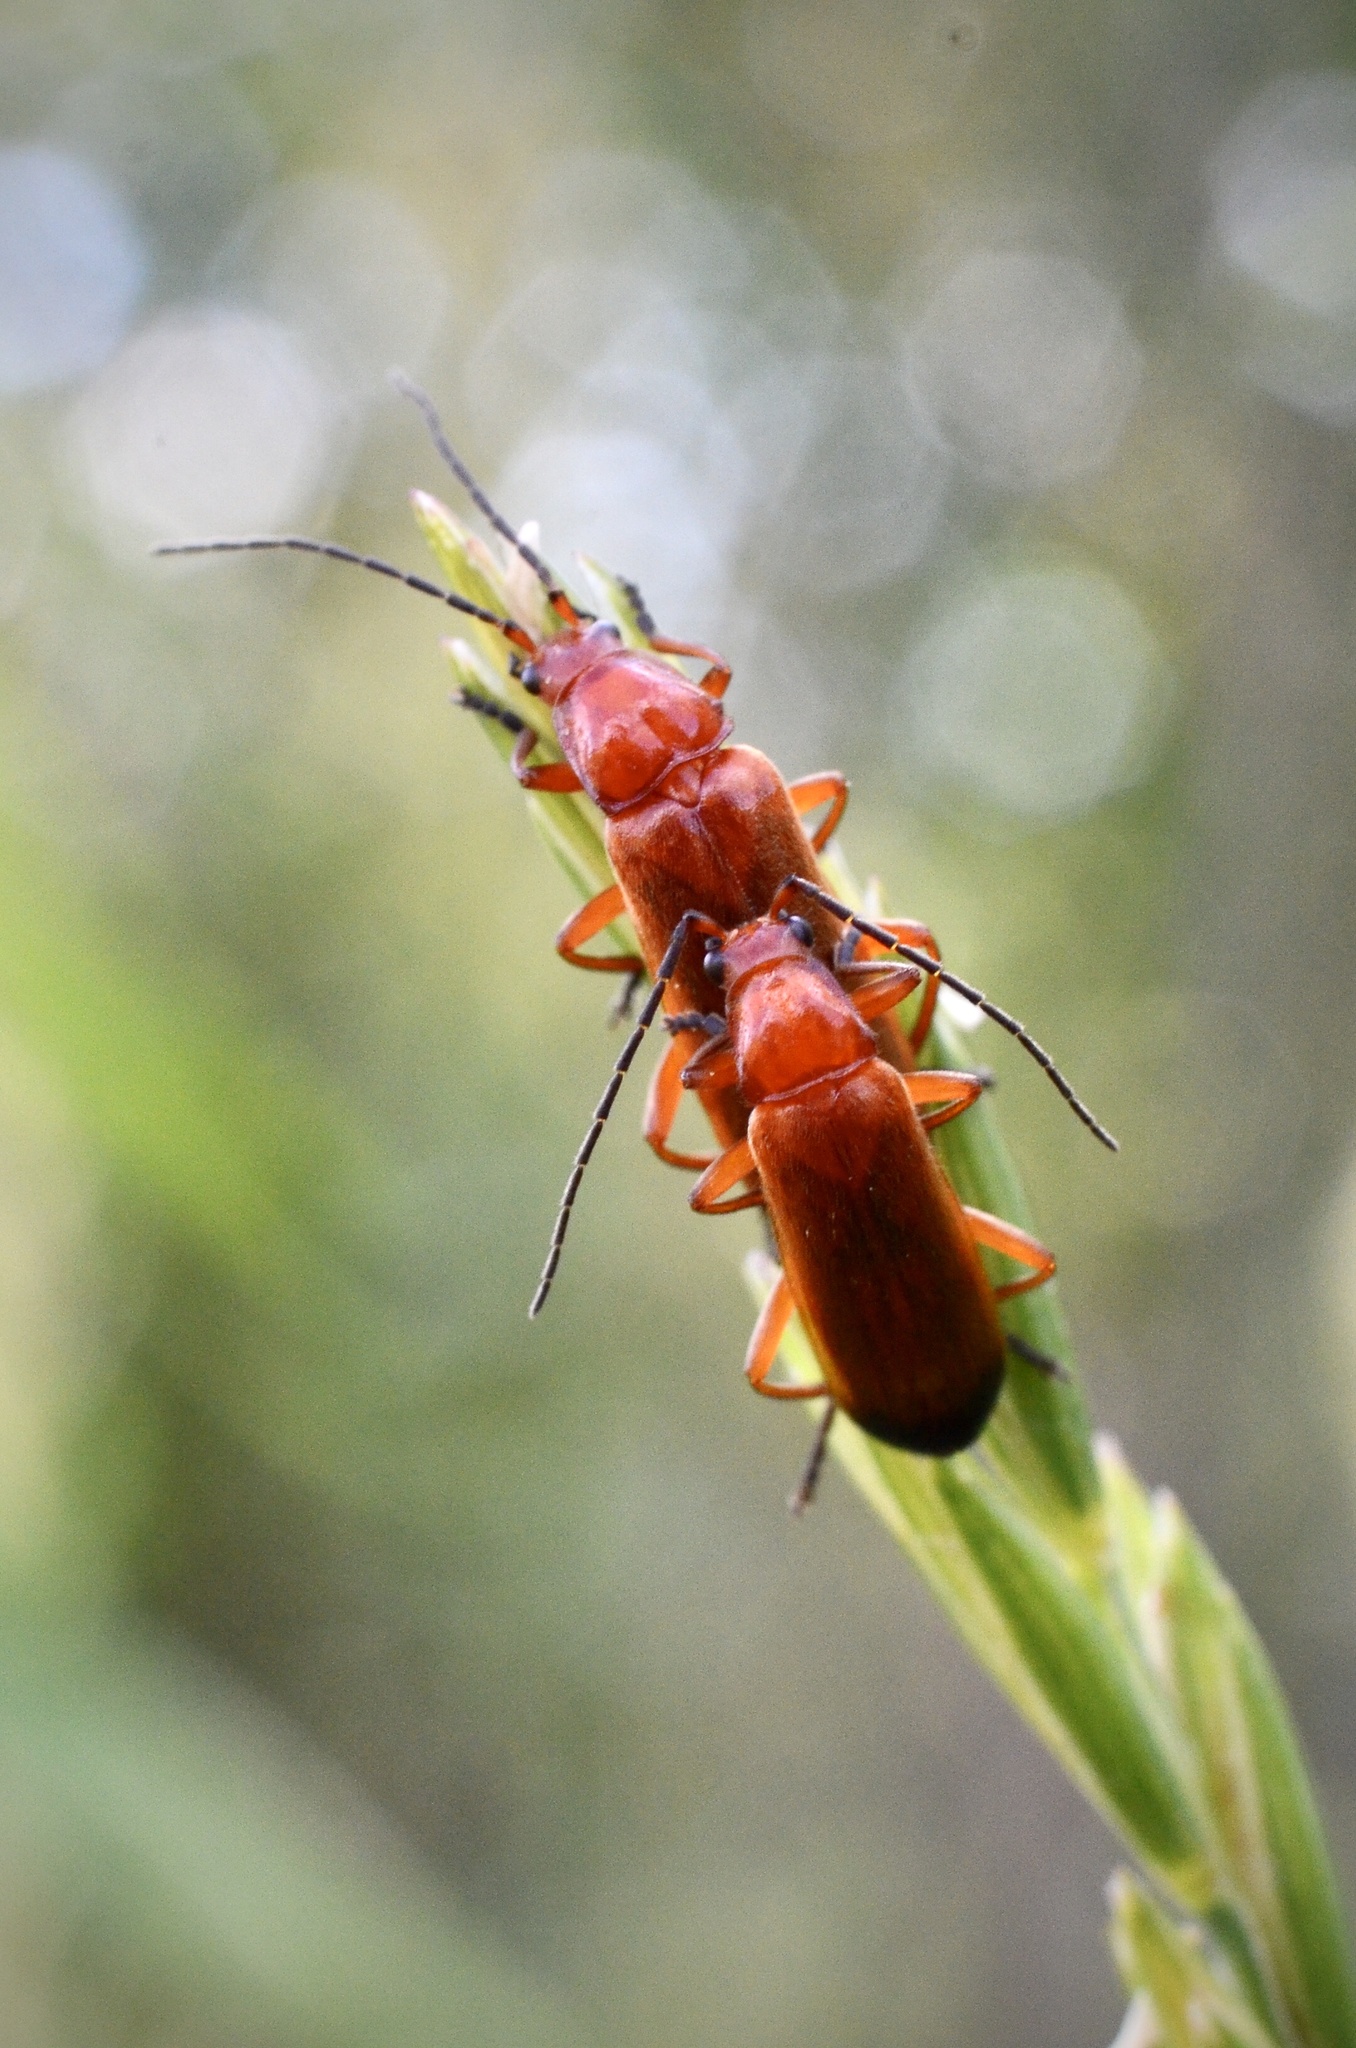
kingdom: Animalia
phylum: Arthropoda
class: Insecta
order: Coleoptera
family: Cantharidae
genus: Rhagonycha
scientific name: Rhagonycha fulva
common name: Common red soldier beetle
